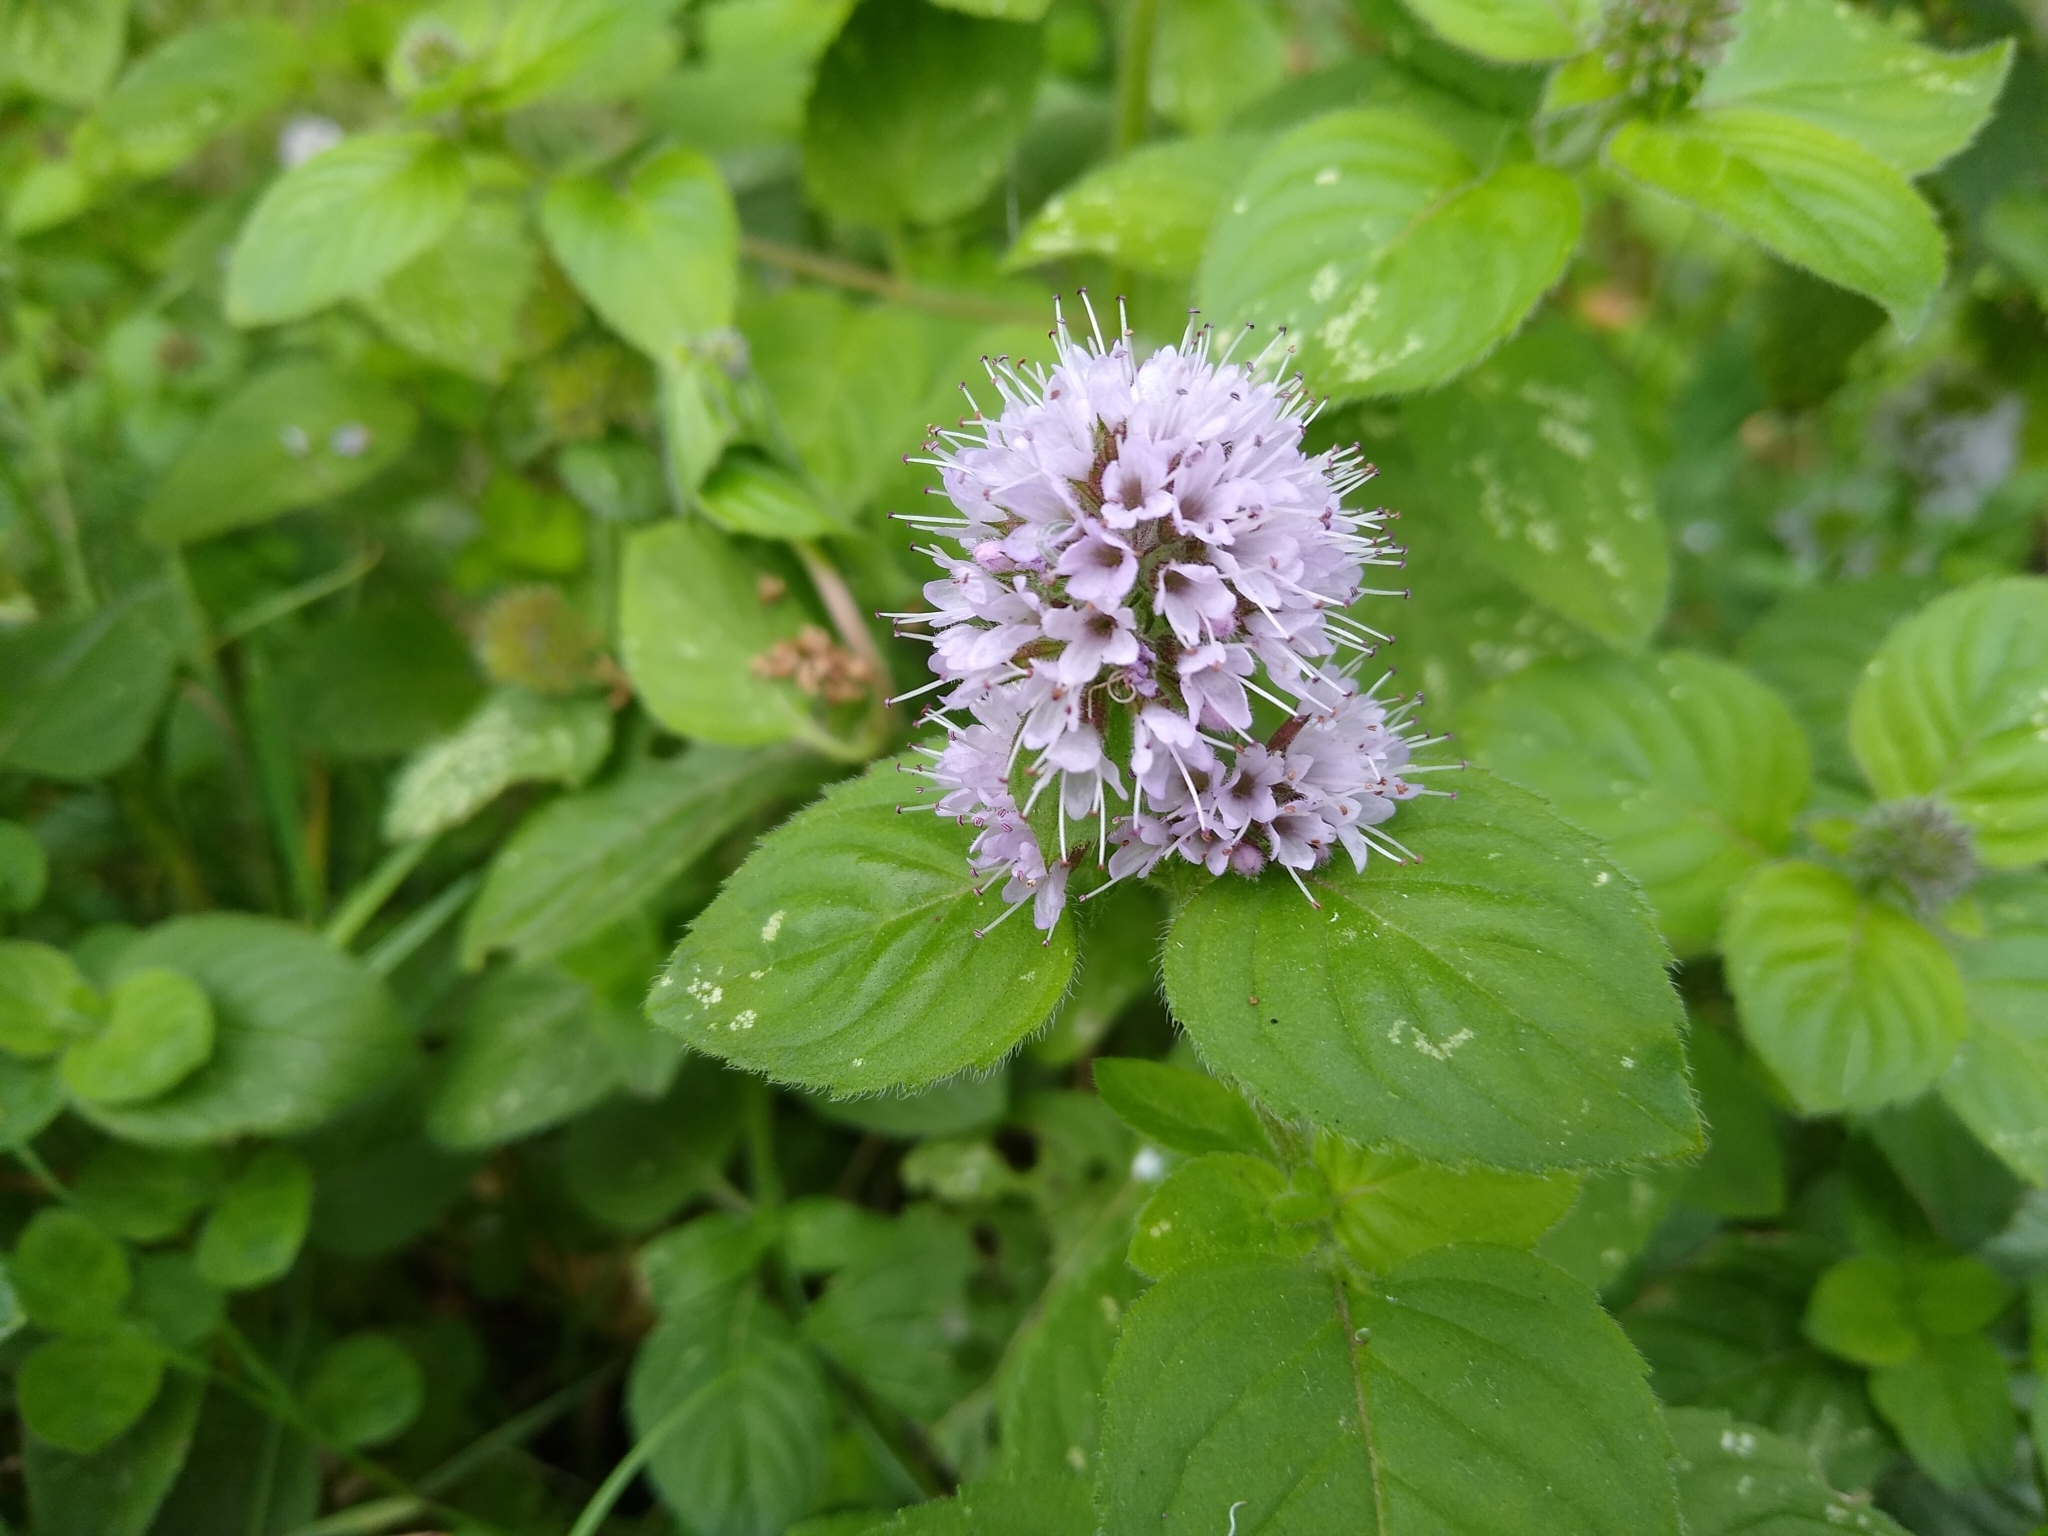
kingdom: Plantae
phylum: Tracheophyta
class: Magnoliopsida
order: Lamiales
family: Lamiaceae
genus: Mentha
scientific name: Mentha aquatica
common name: Water mint
